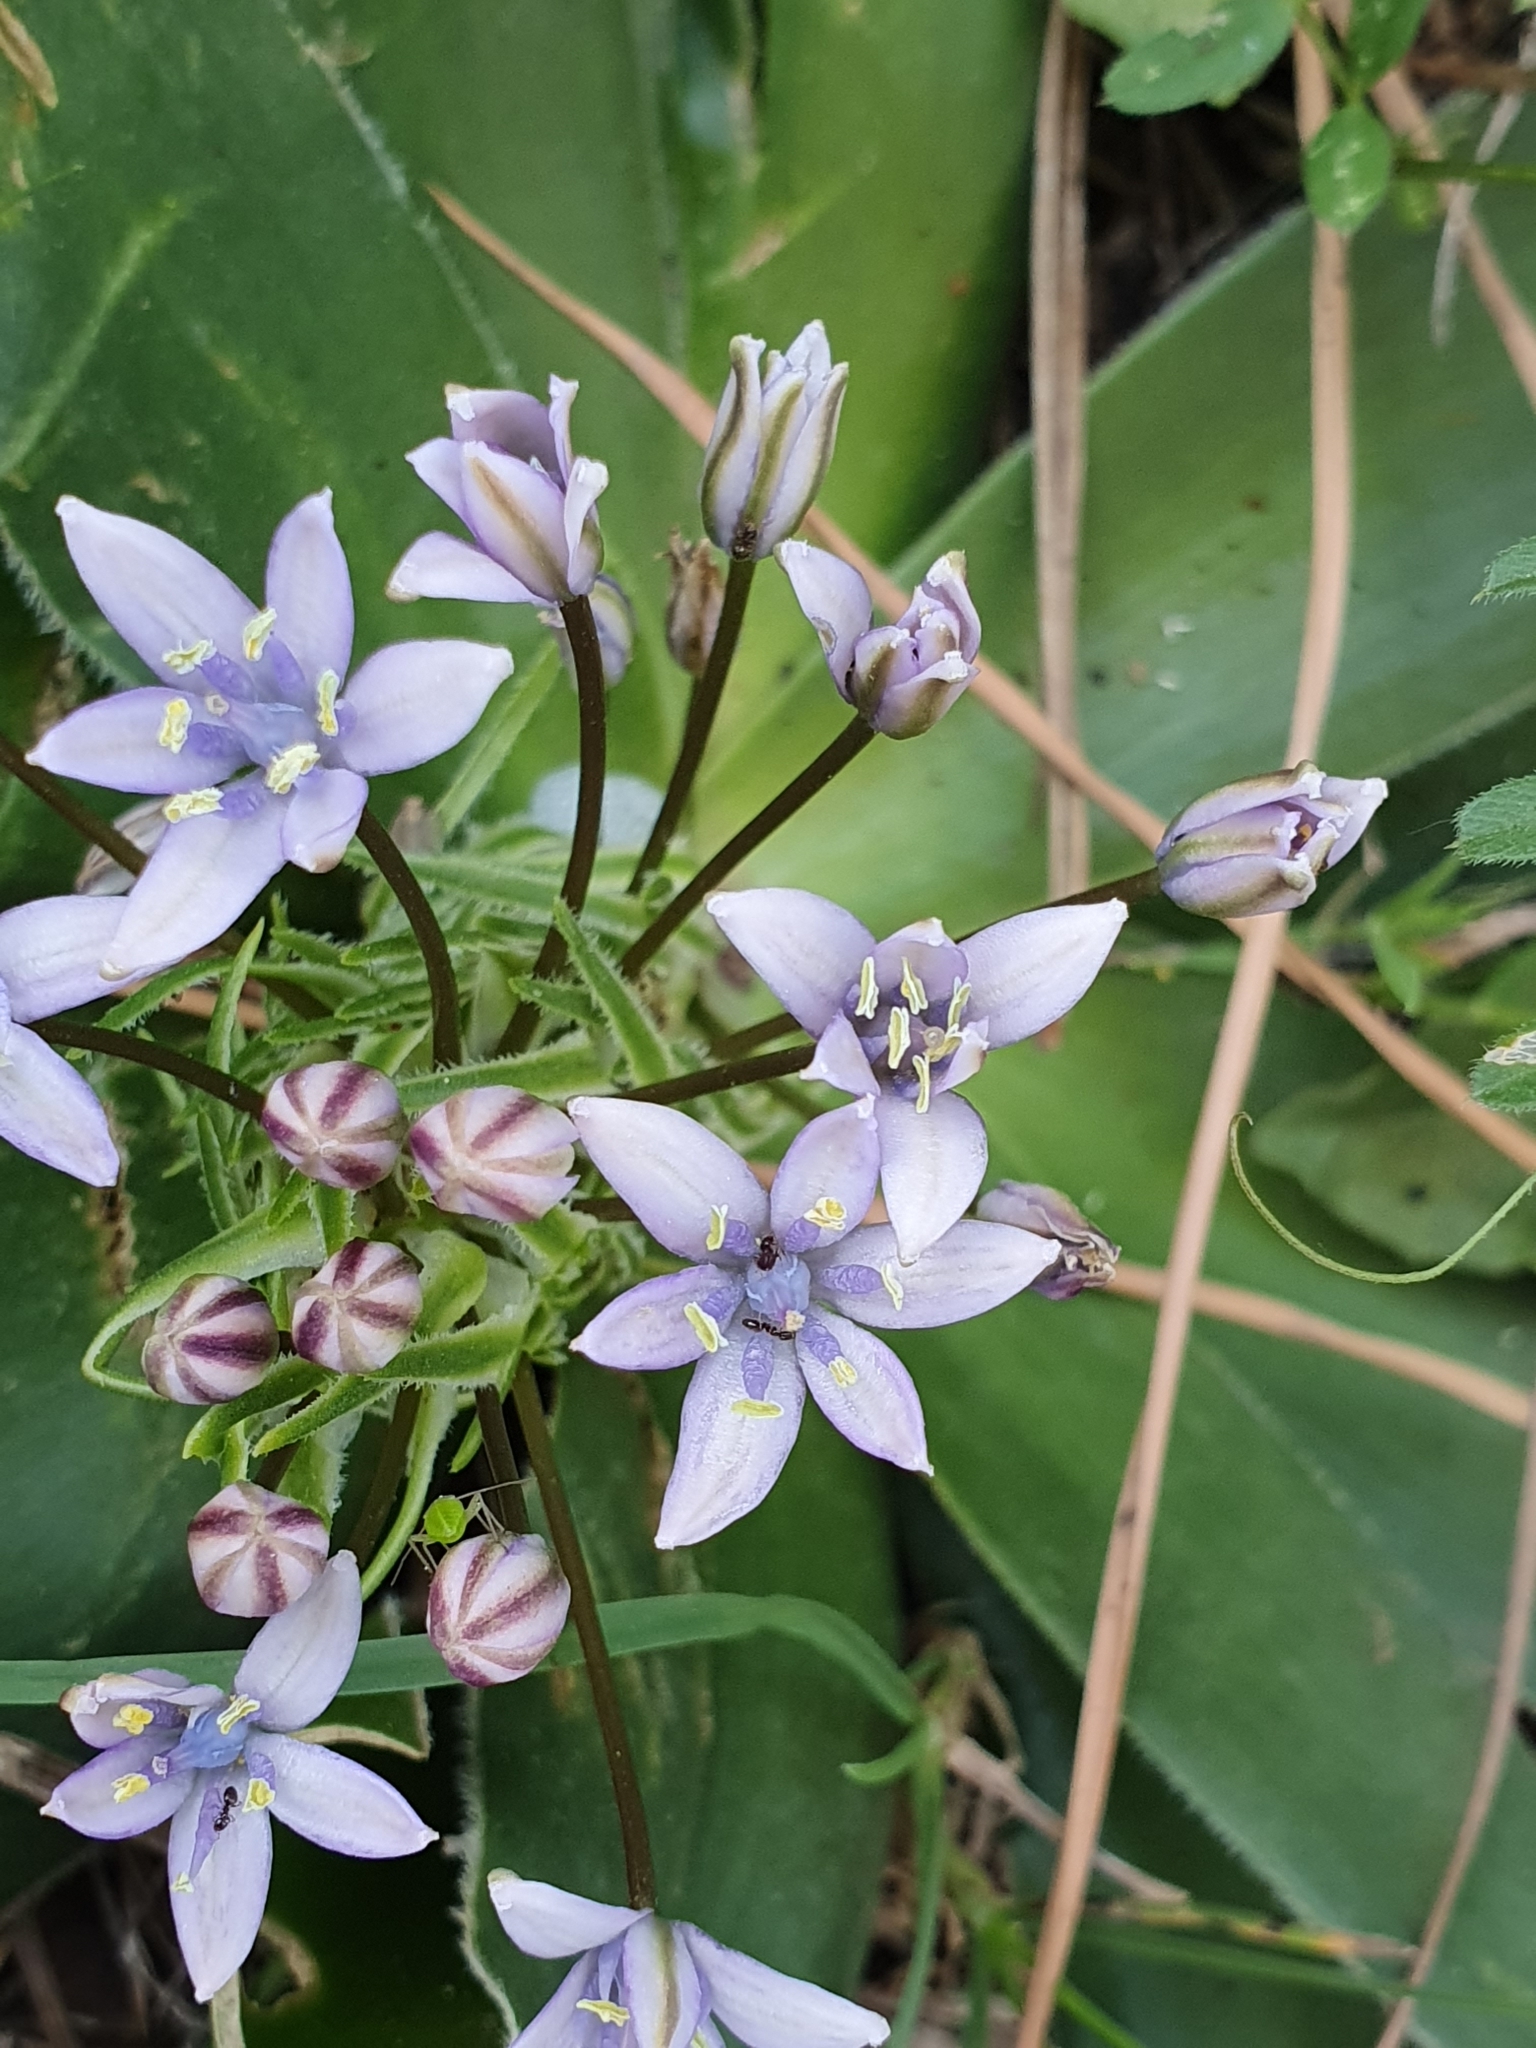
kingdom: Plantae
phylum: Tracheophyta
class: Liliopsida
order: Asparagales
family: Asparagaceae
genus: Scilla
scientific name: Scilla peruviana
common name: Portuguese squill
